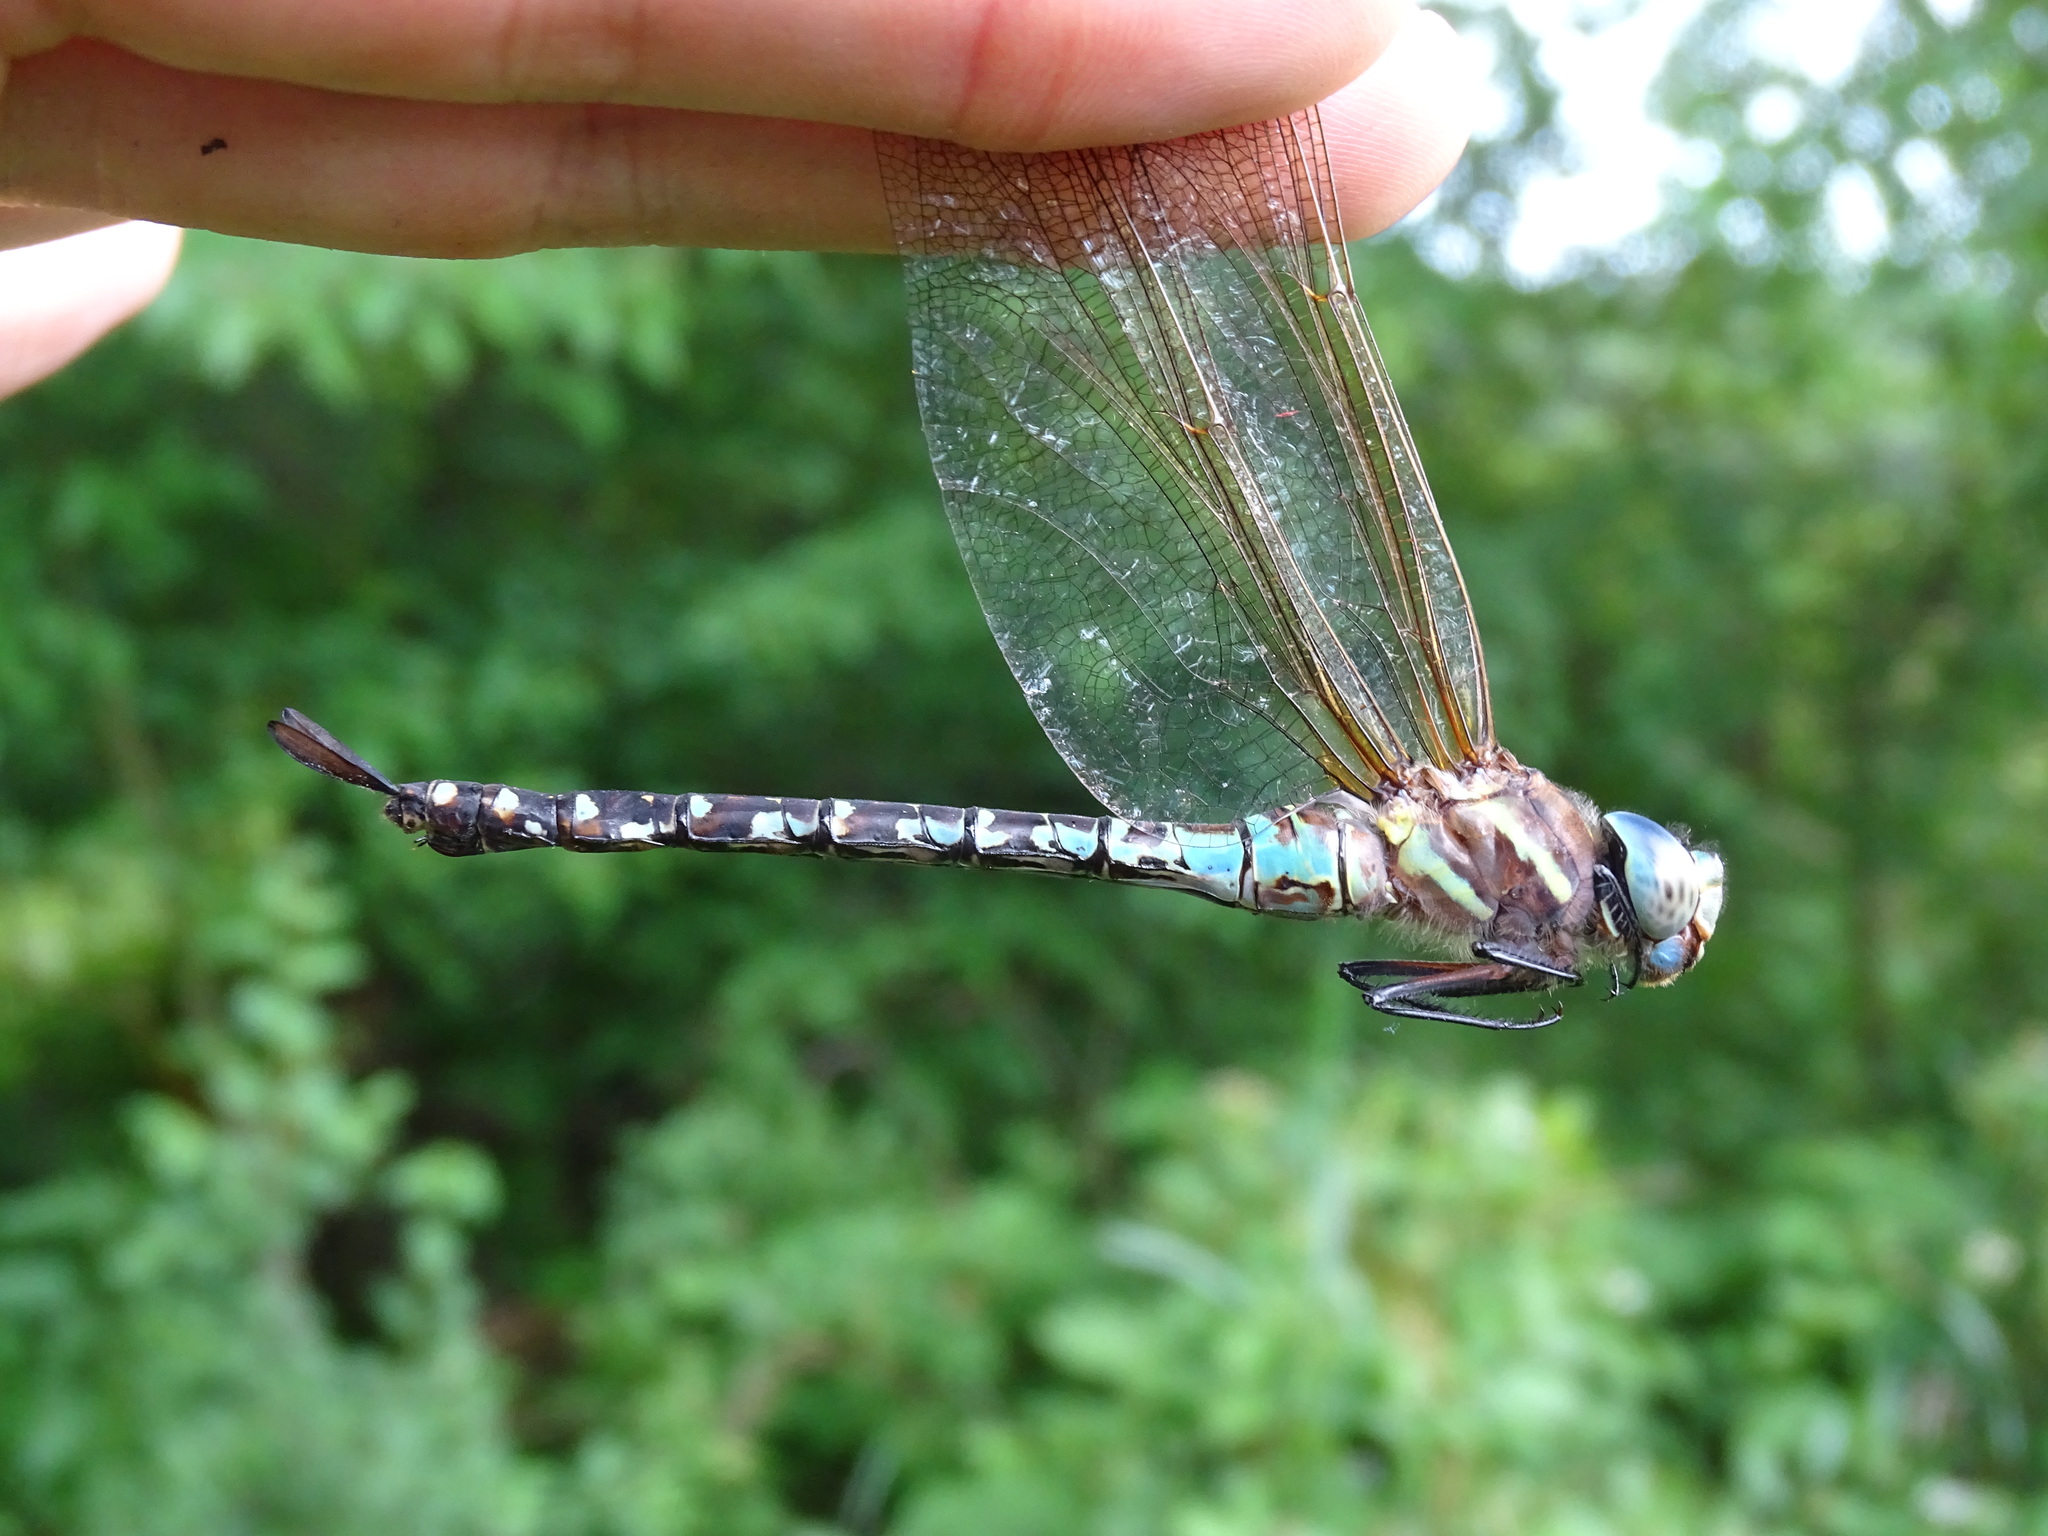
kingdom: Animalia
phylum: Arthropoda
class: Insecta
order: Odonata
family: Aeshnidae
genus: Rhionaeschna
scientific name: Rhionaeschna mutata
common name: Spatterdock darner
